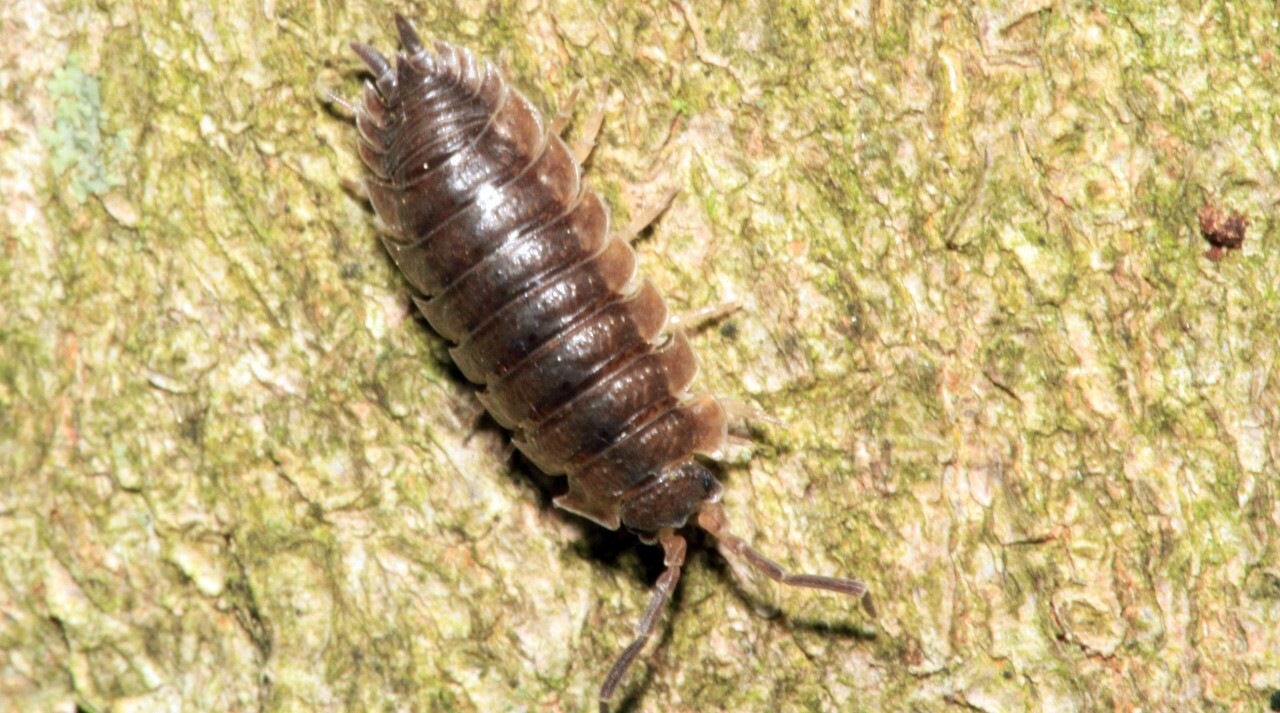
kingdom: Animalia
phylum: Arthropoda
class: Malacostraca
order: Isopoda
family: Porcellionidae
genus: Porcellio
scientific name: Porcellio scaber
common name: Common rough woodlouse
